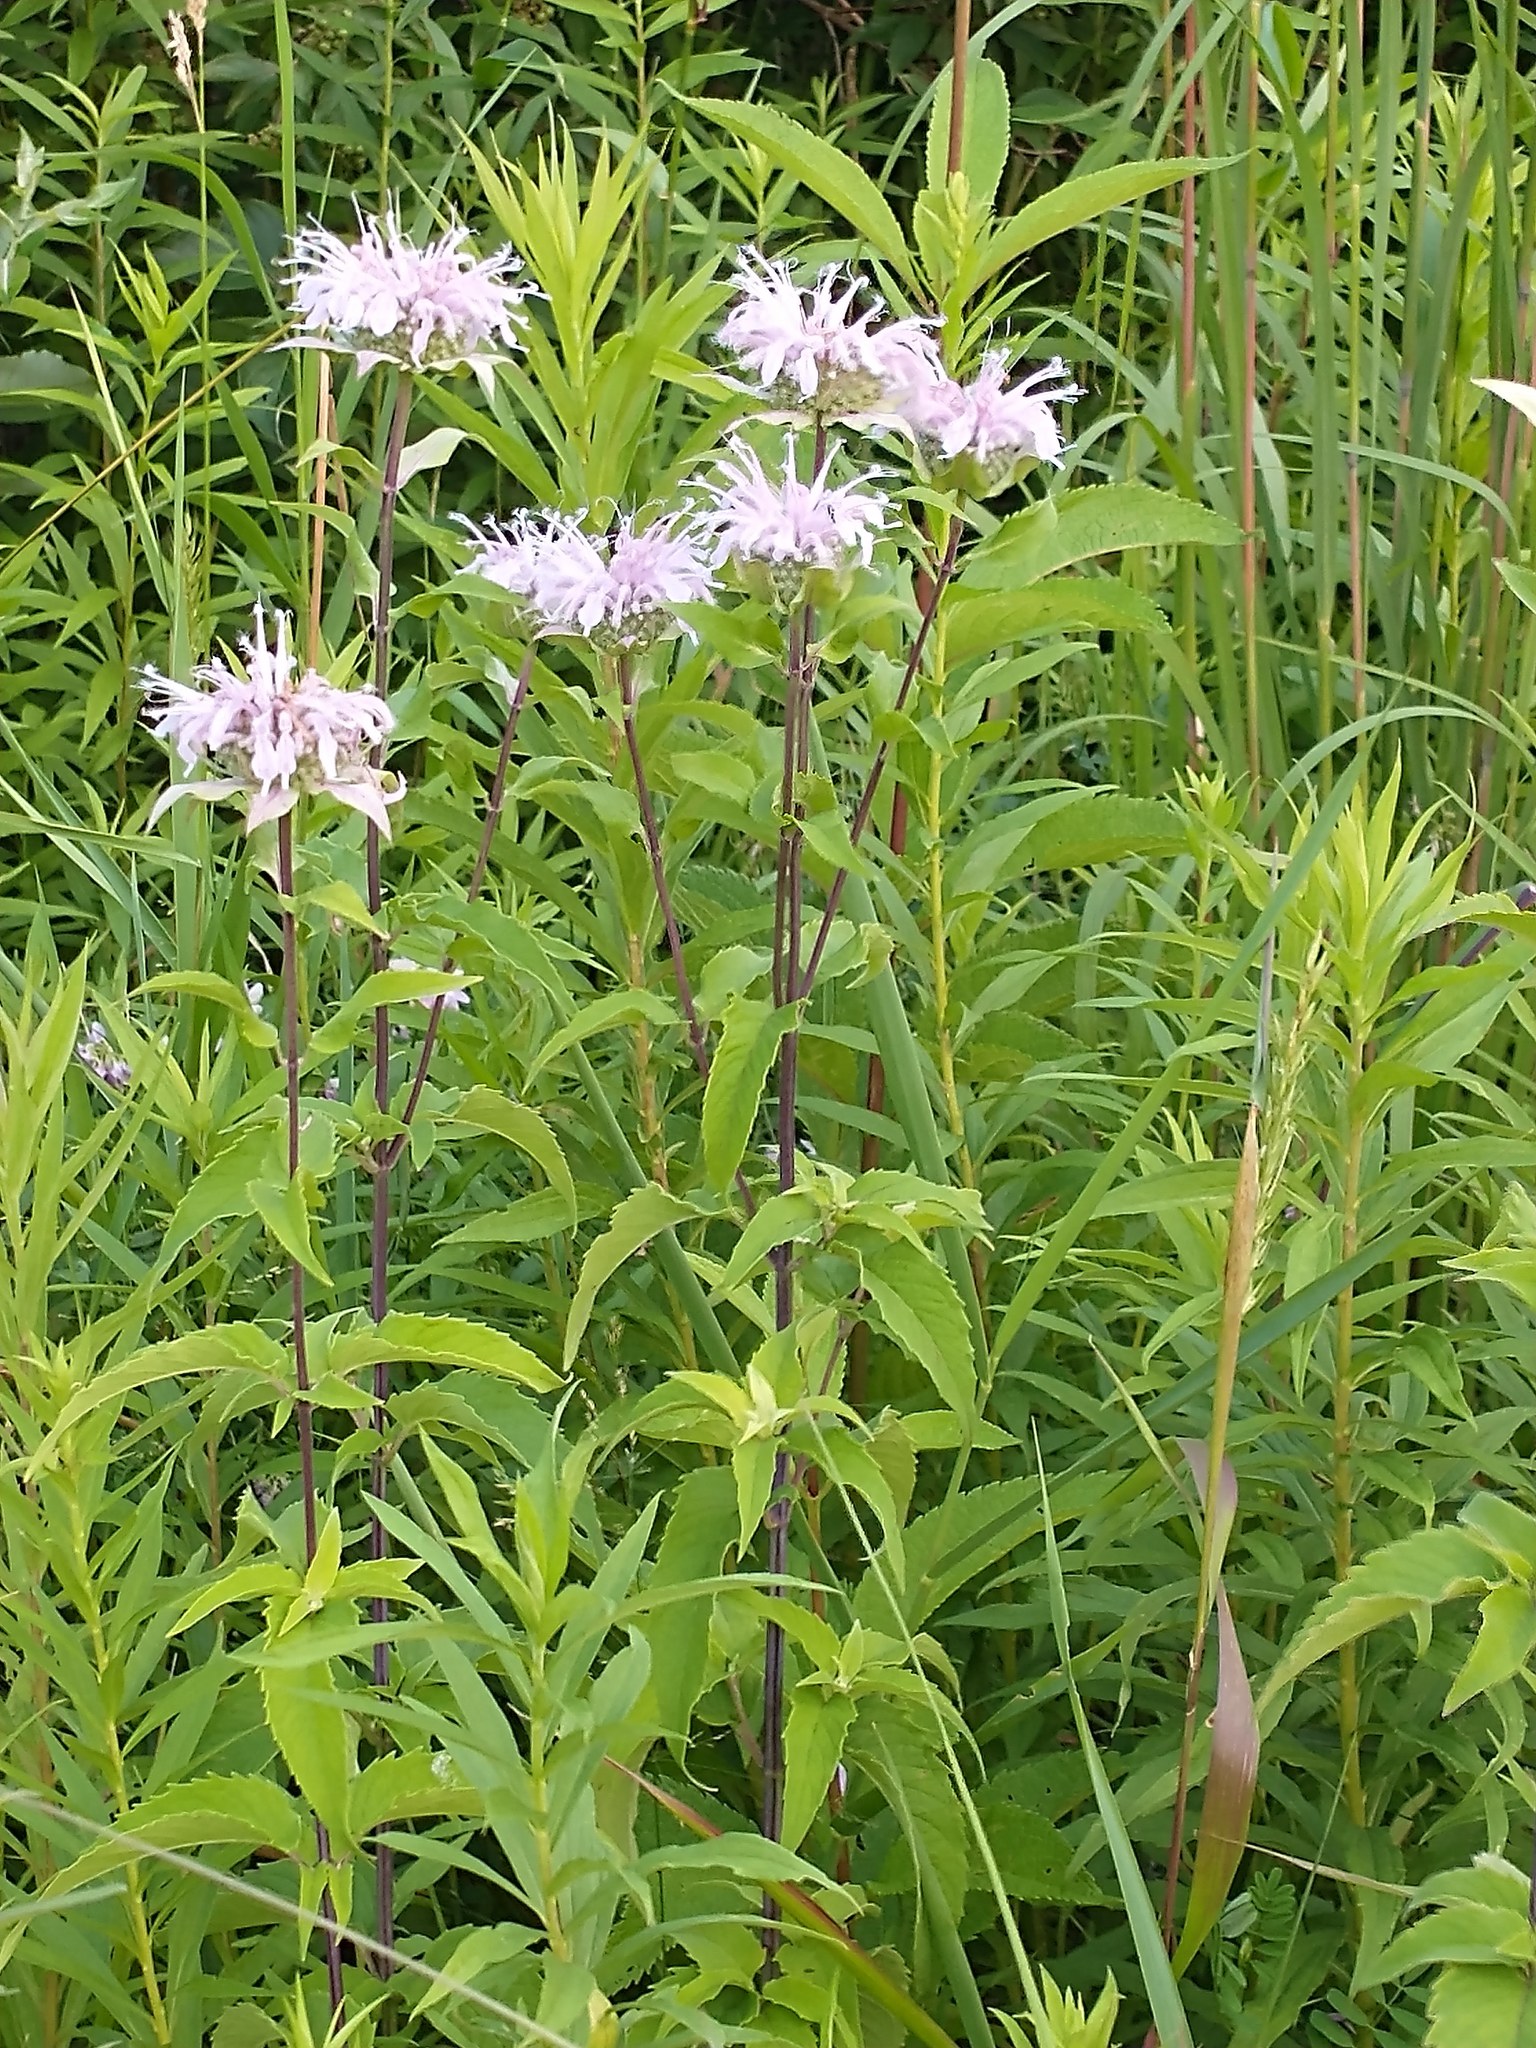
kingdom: Plantae
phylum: Tracheophyta
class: Magnoliopsida
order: Lamiales
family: Lamiaceae
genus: Monarda
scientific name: Monarda fistulosa
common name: Purple beebalm
